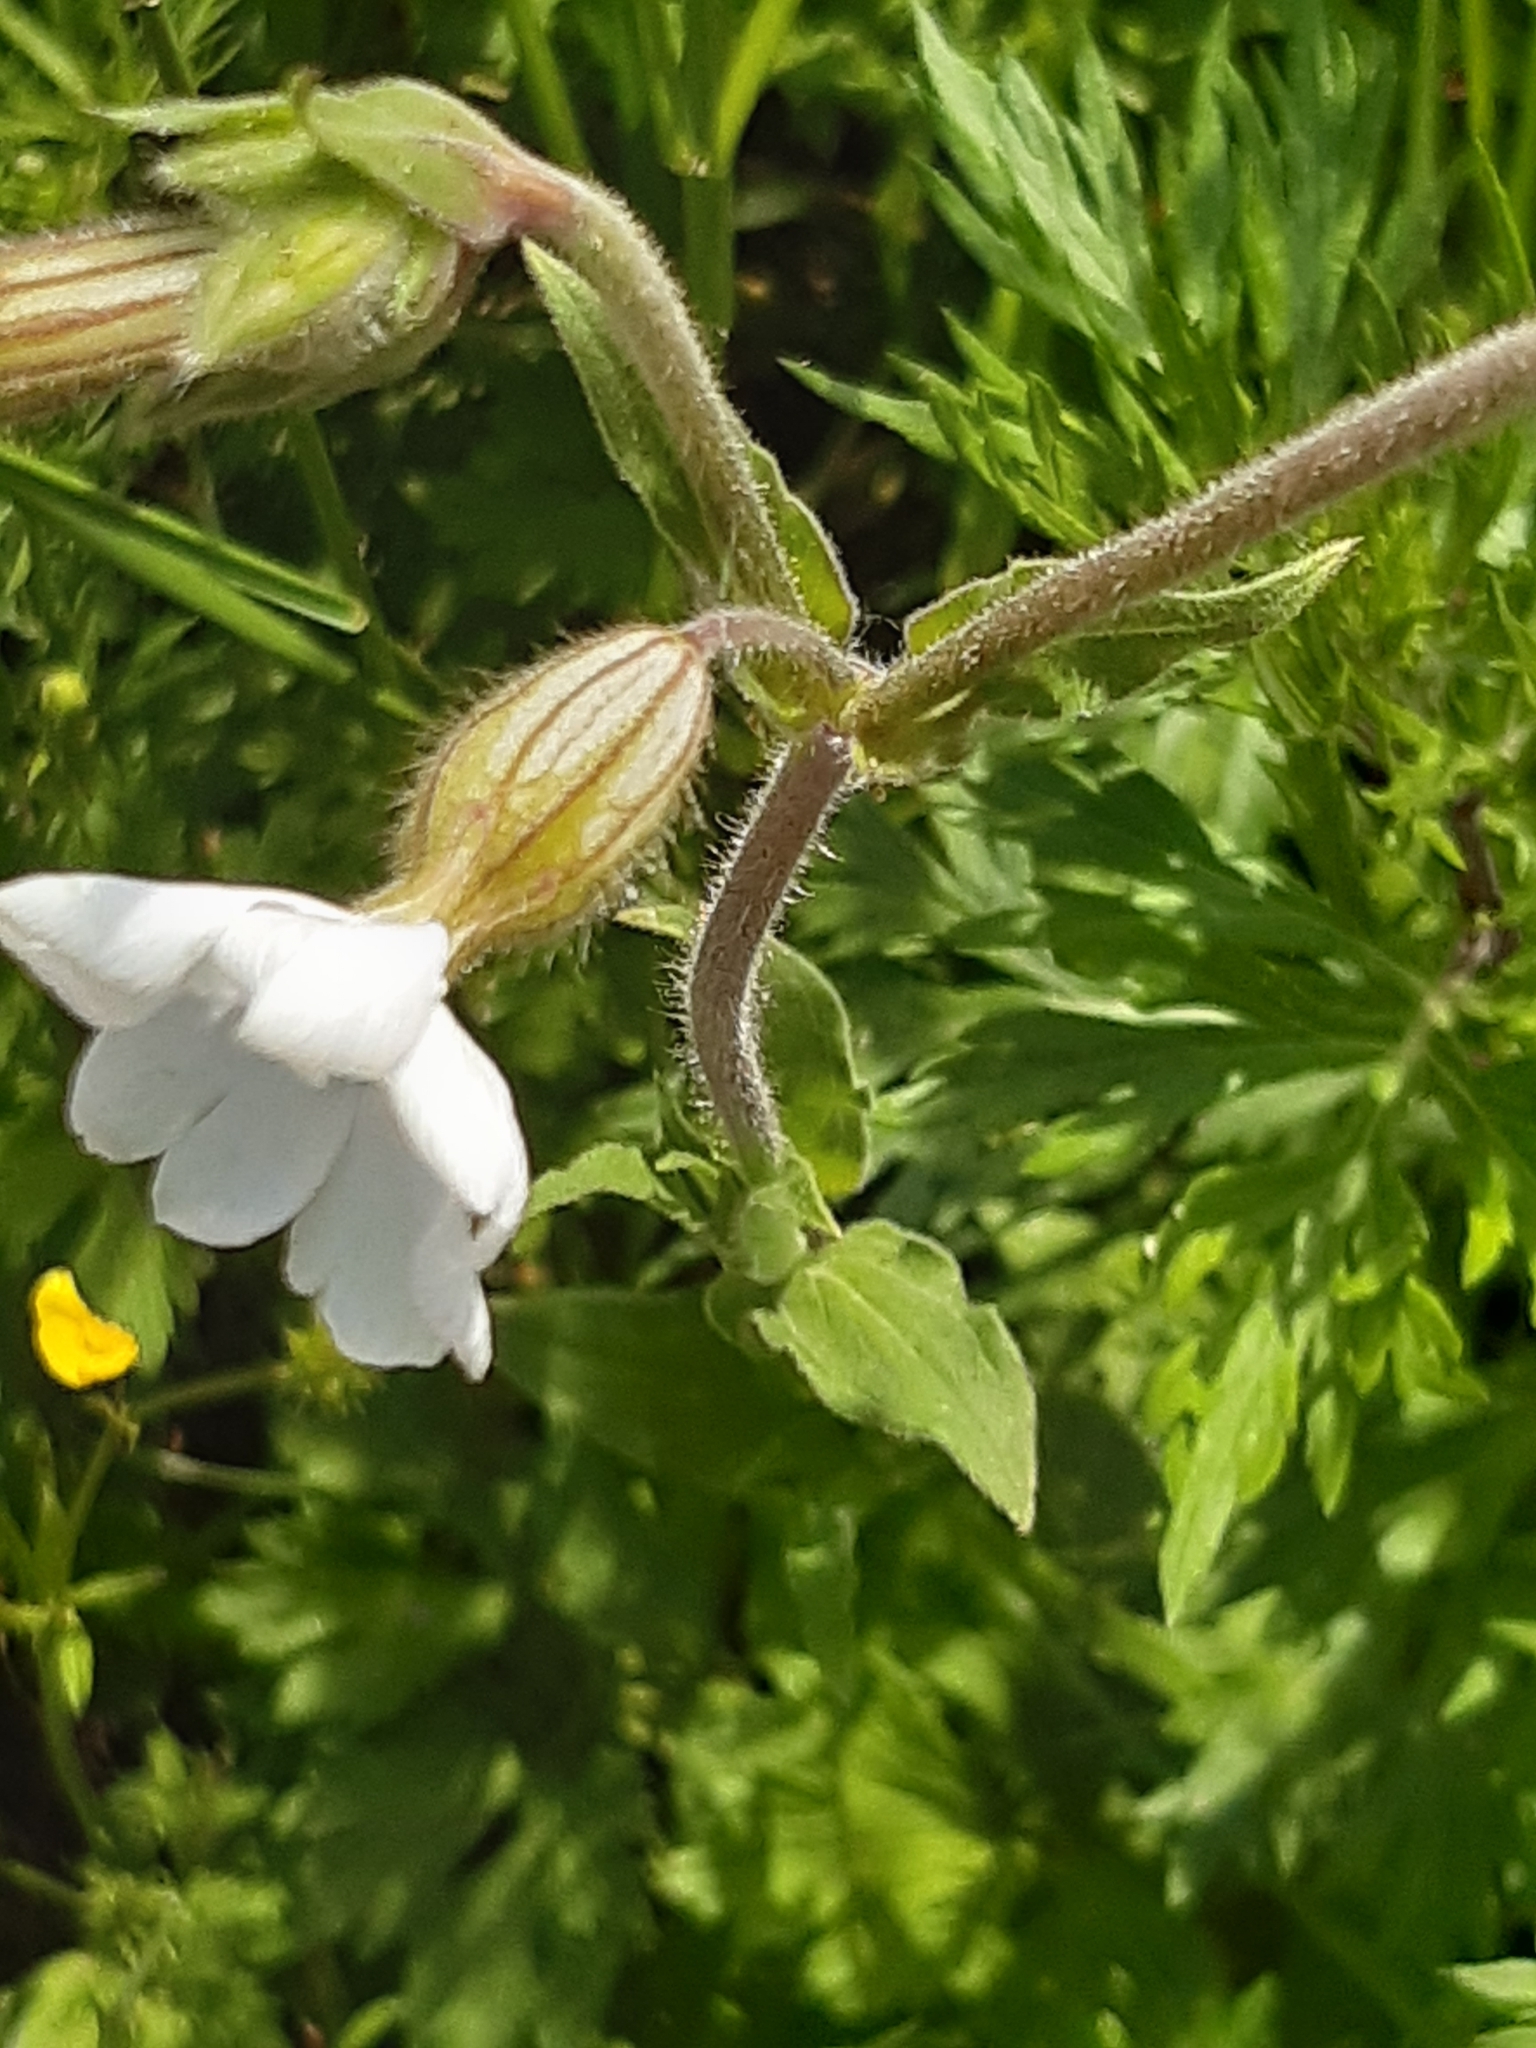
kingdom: Plantae
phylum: Tracheophyta
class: Magnoliopsida
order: Caryophyllales
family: Caryophyllaceae
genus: Silene
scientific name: Silene latifolia
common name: White campion
